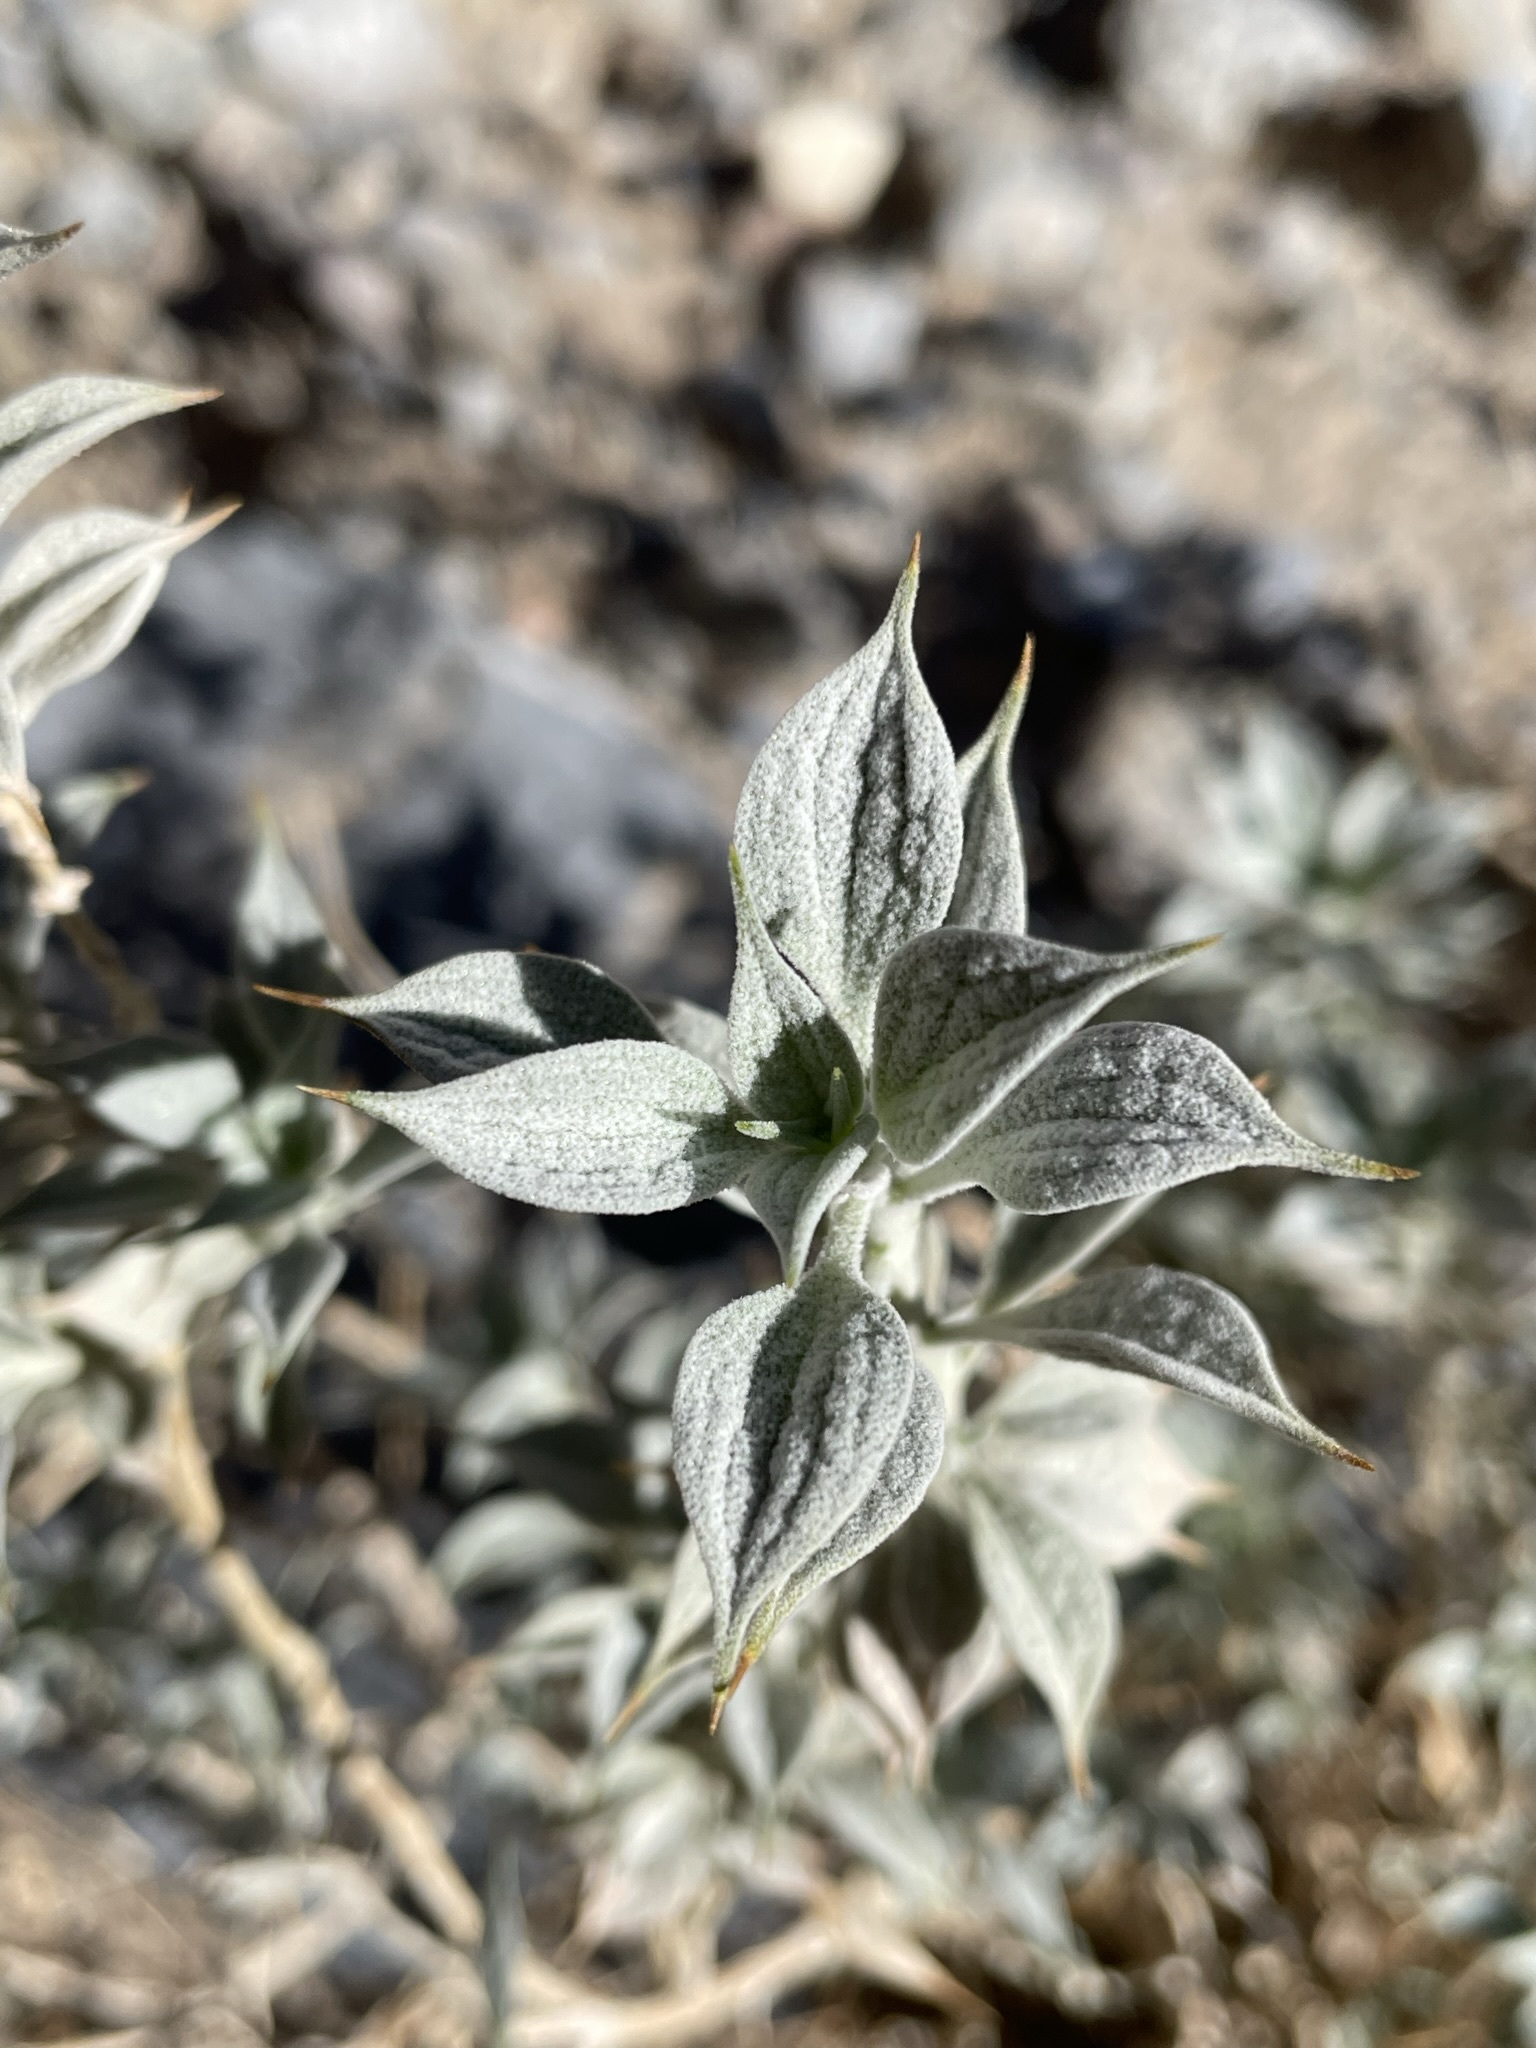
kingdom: Plantae
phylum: Tracheophyta
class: Magnoliopsida
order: Lamiales
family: Lamiaceae
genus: Salvia
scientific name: Salvia funerea
